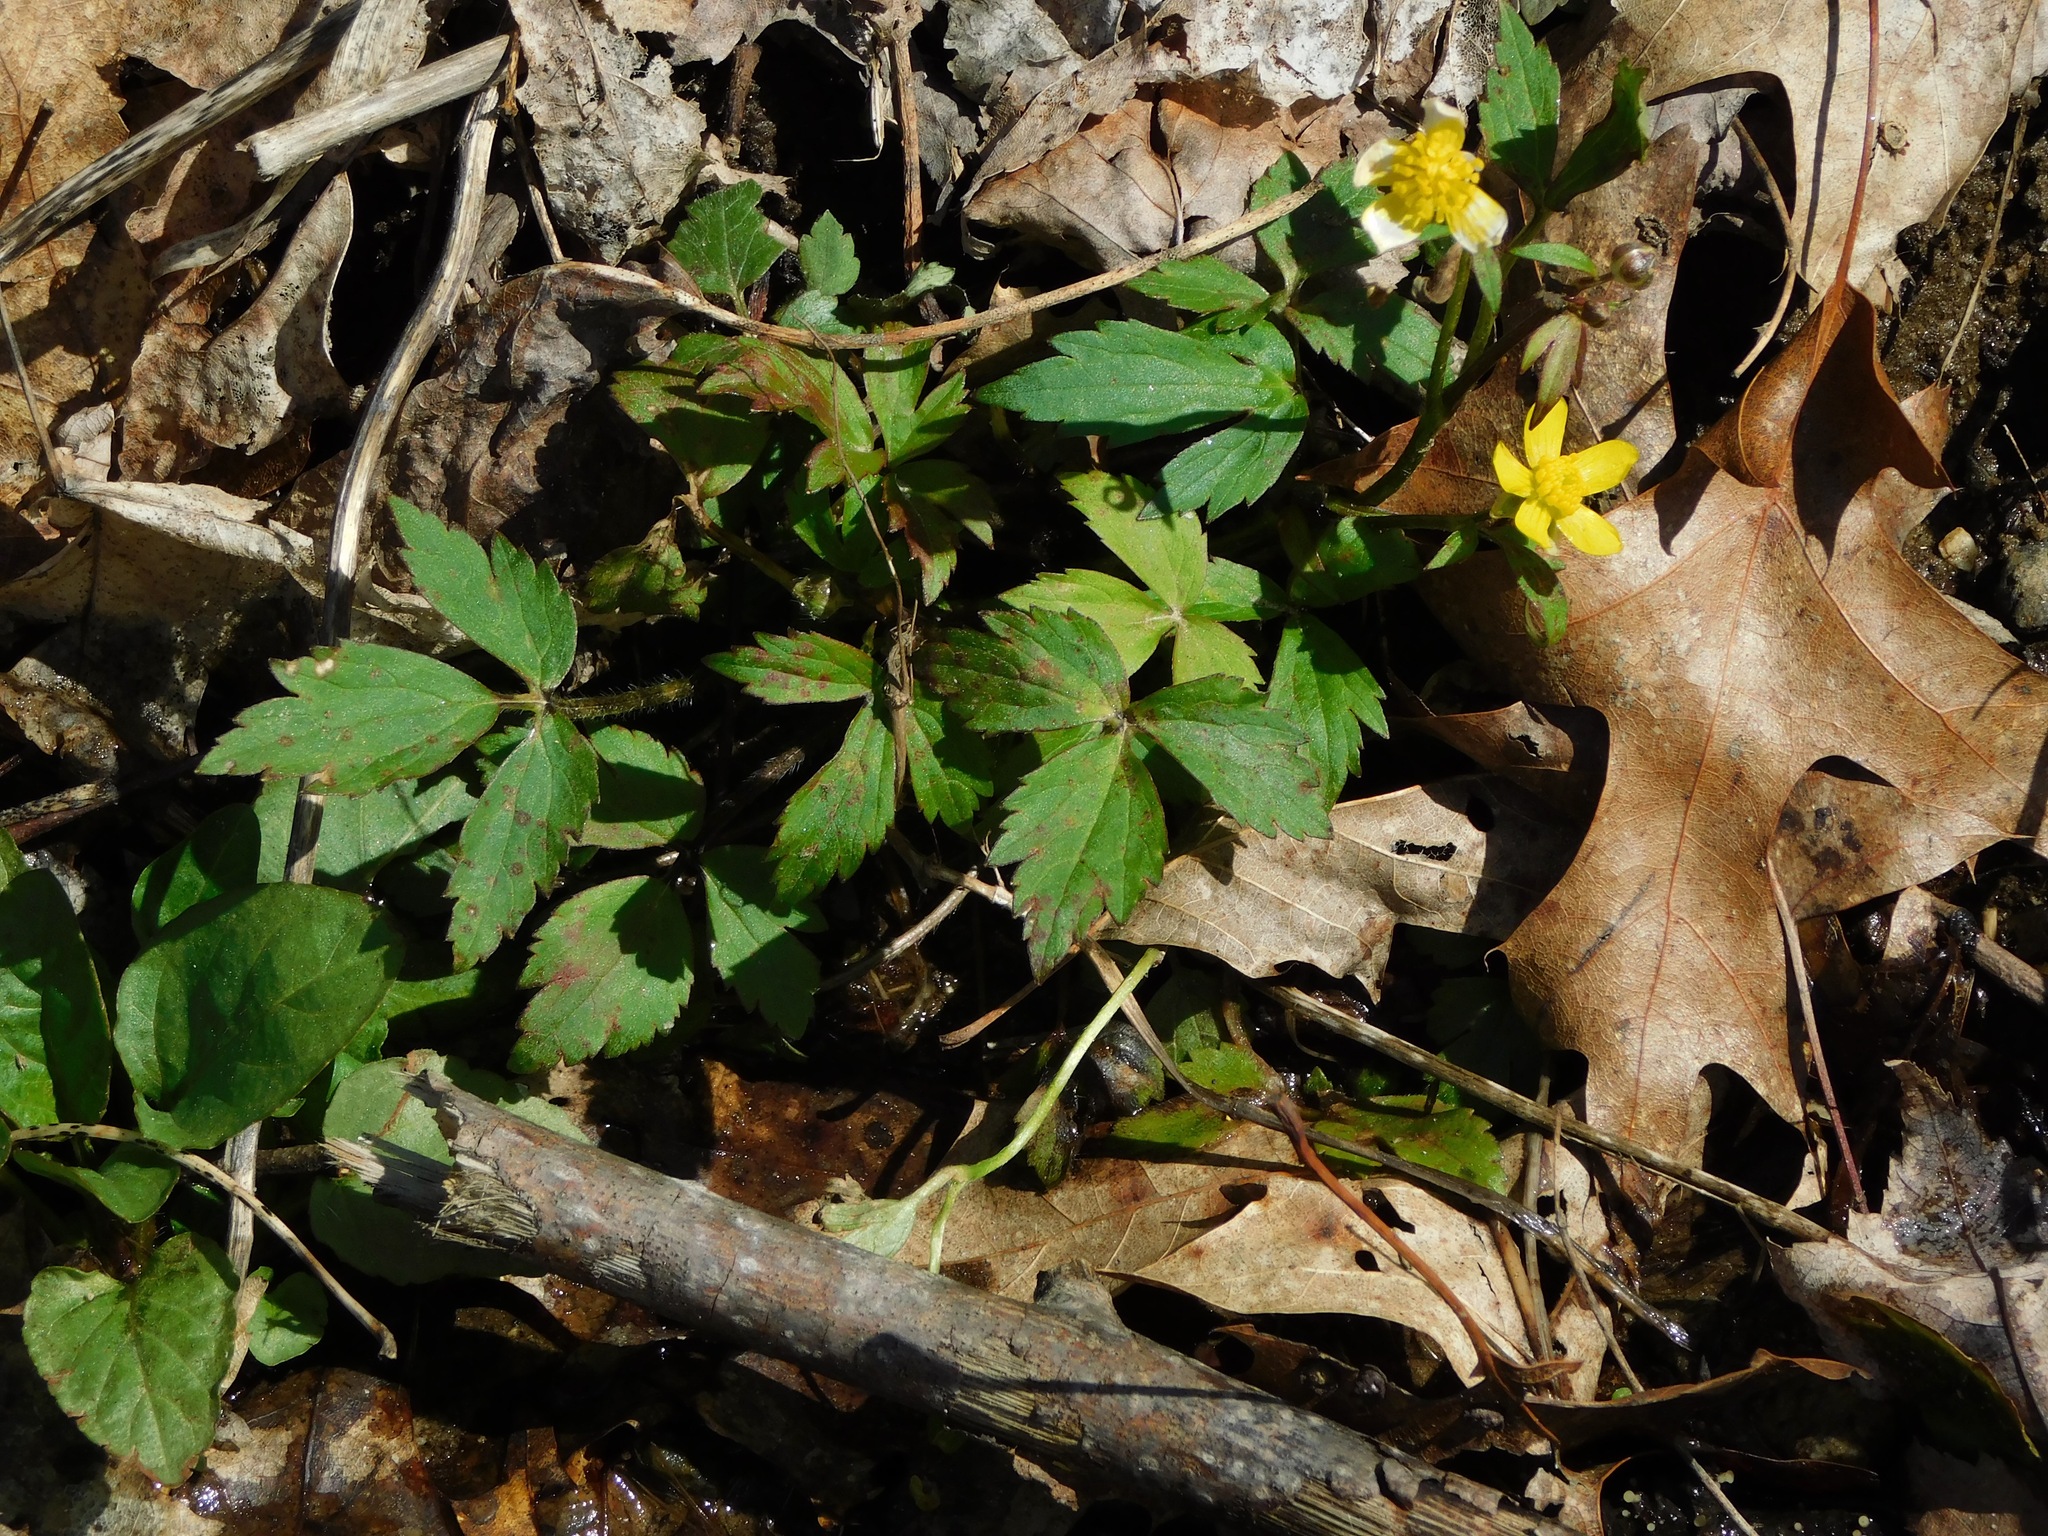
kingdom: Plantae
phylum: Tracheophyta
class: Magnoliopsida
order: Ranunculales
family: Ranunculaceae
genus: Ranunculus
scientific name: Ranunculus hispidus
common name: Bristly buttercup
